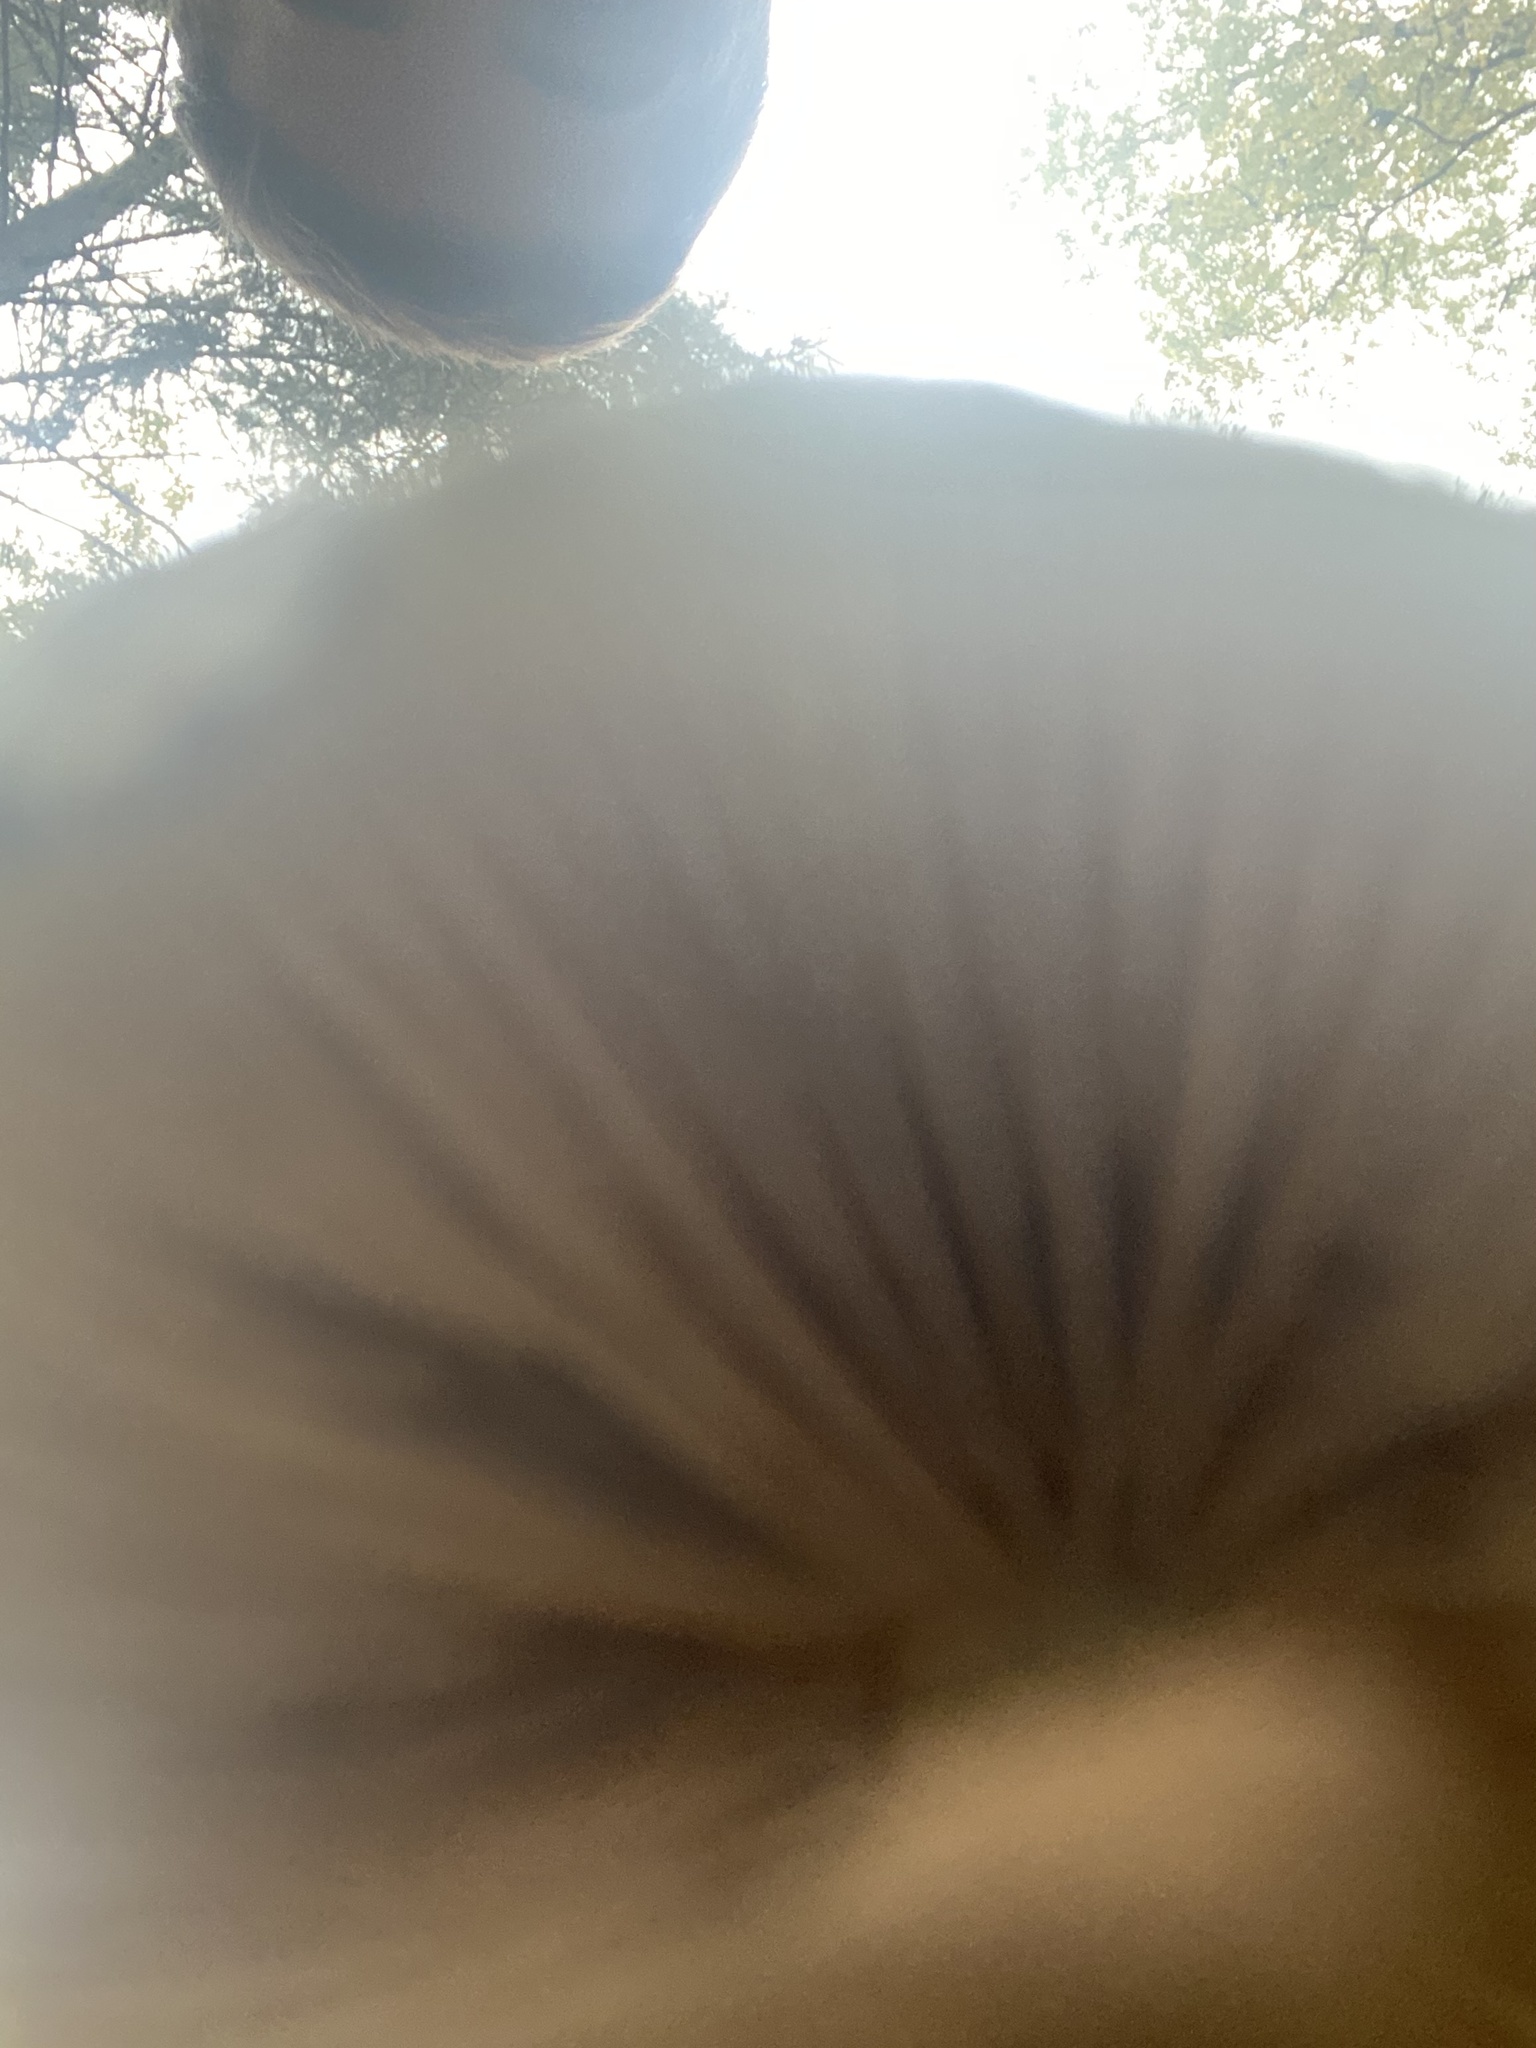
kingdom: Fungi
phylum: Basidiomycota
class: Agaricomycetes
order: Agaricales
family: Strophariaceae
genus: Stropharia
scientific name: Stropharia
